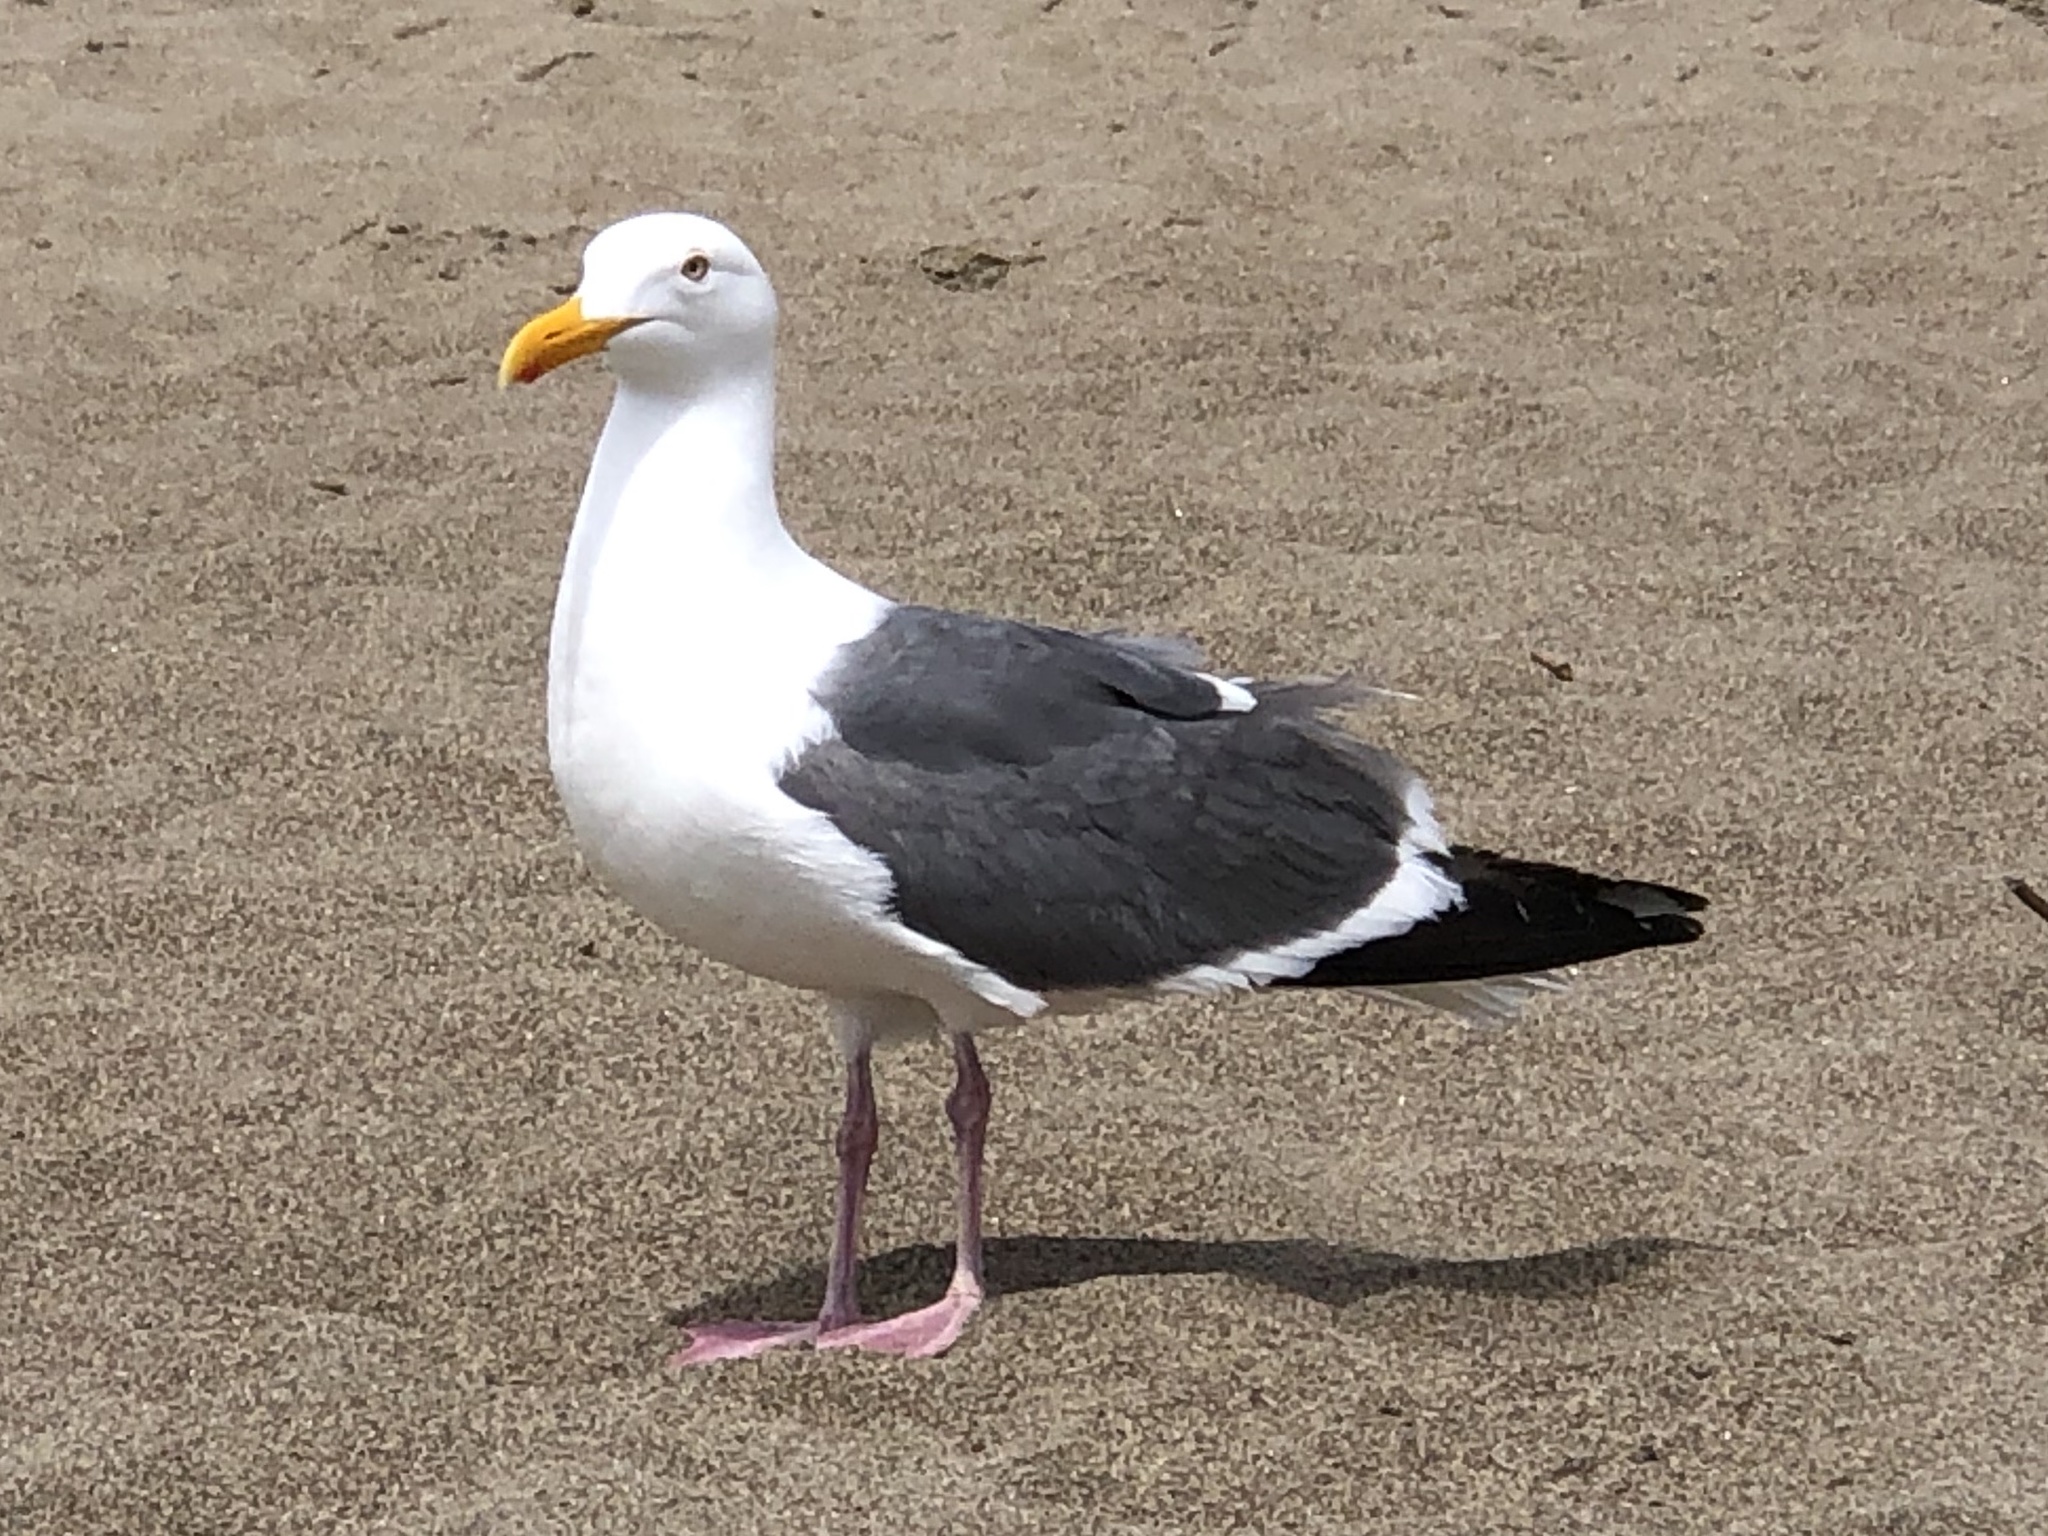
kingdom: Animalia
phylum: Chordata
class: Aves
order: Charadriiformes
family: Laridae
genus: Larus
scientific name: Larus occidentalis
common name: Western gull
